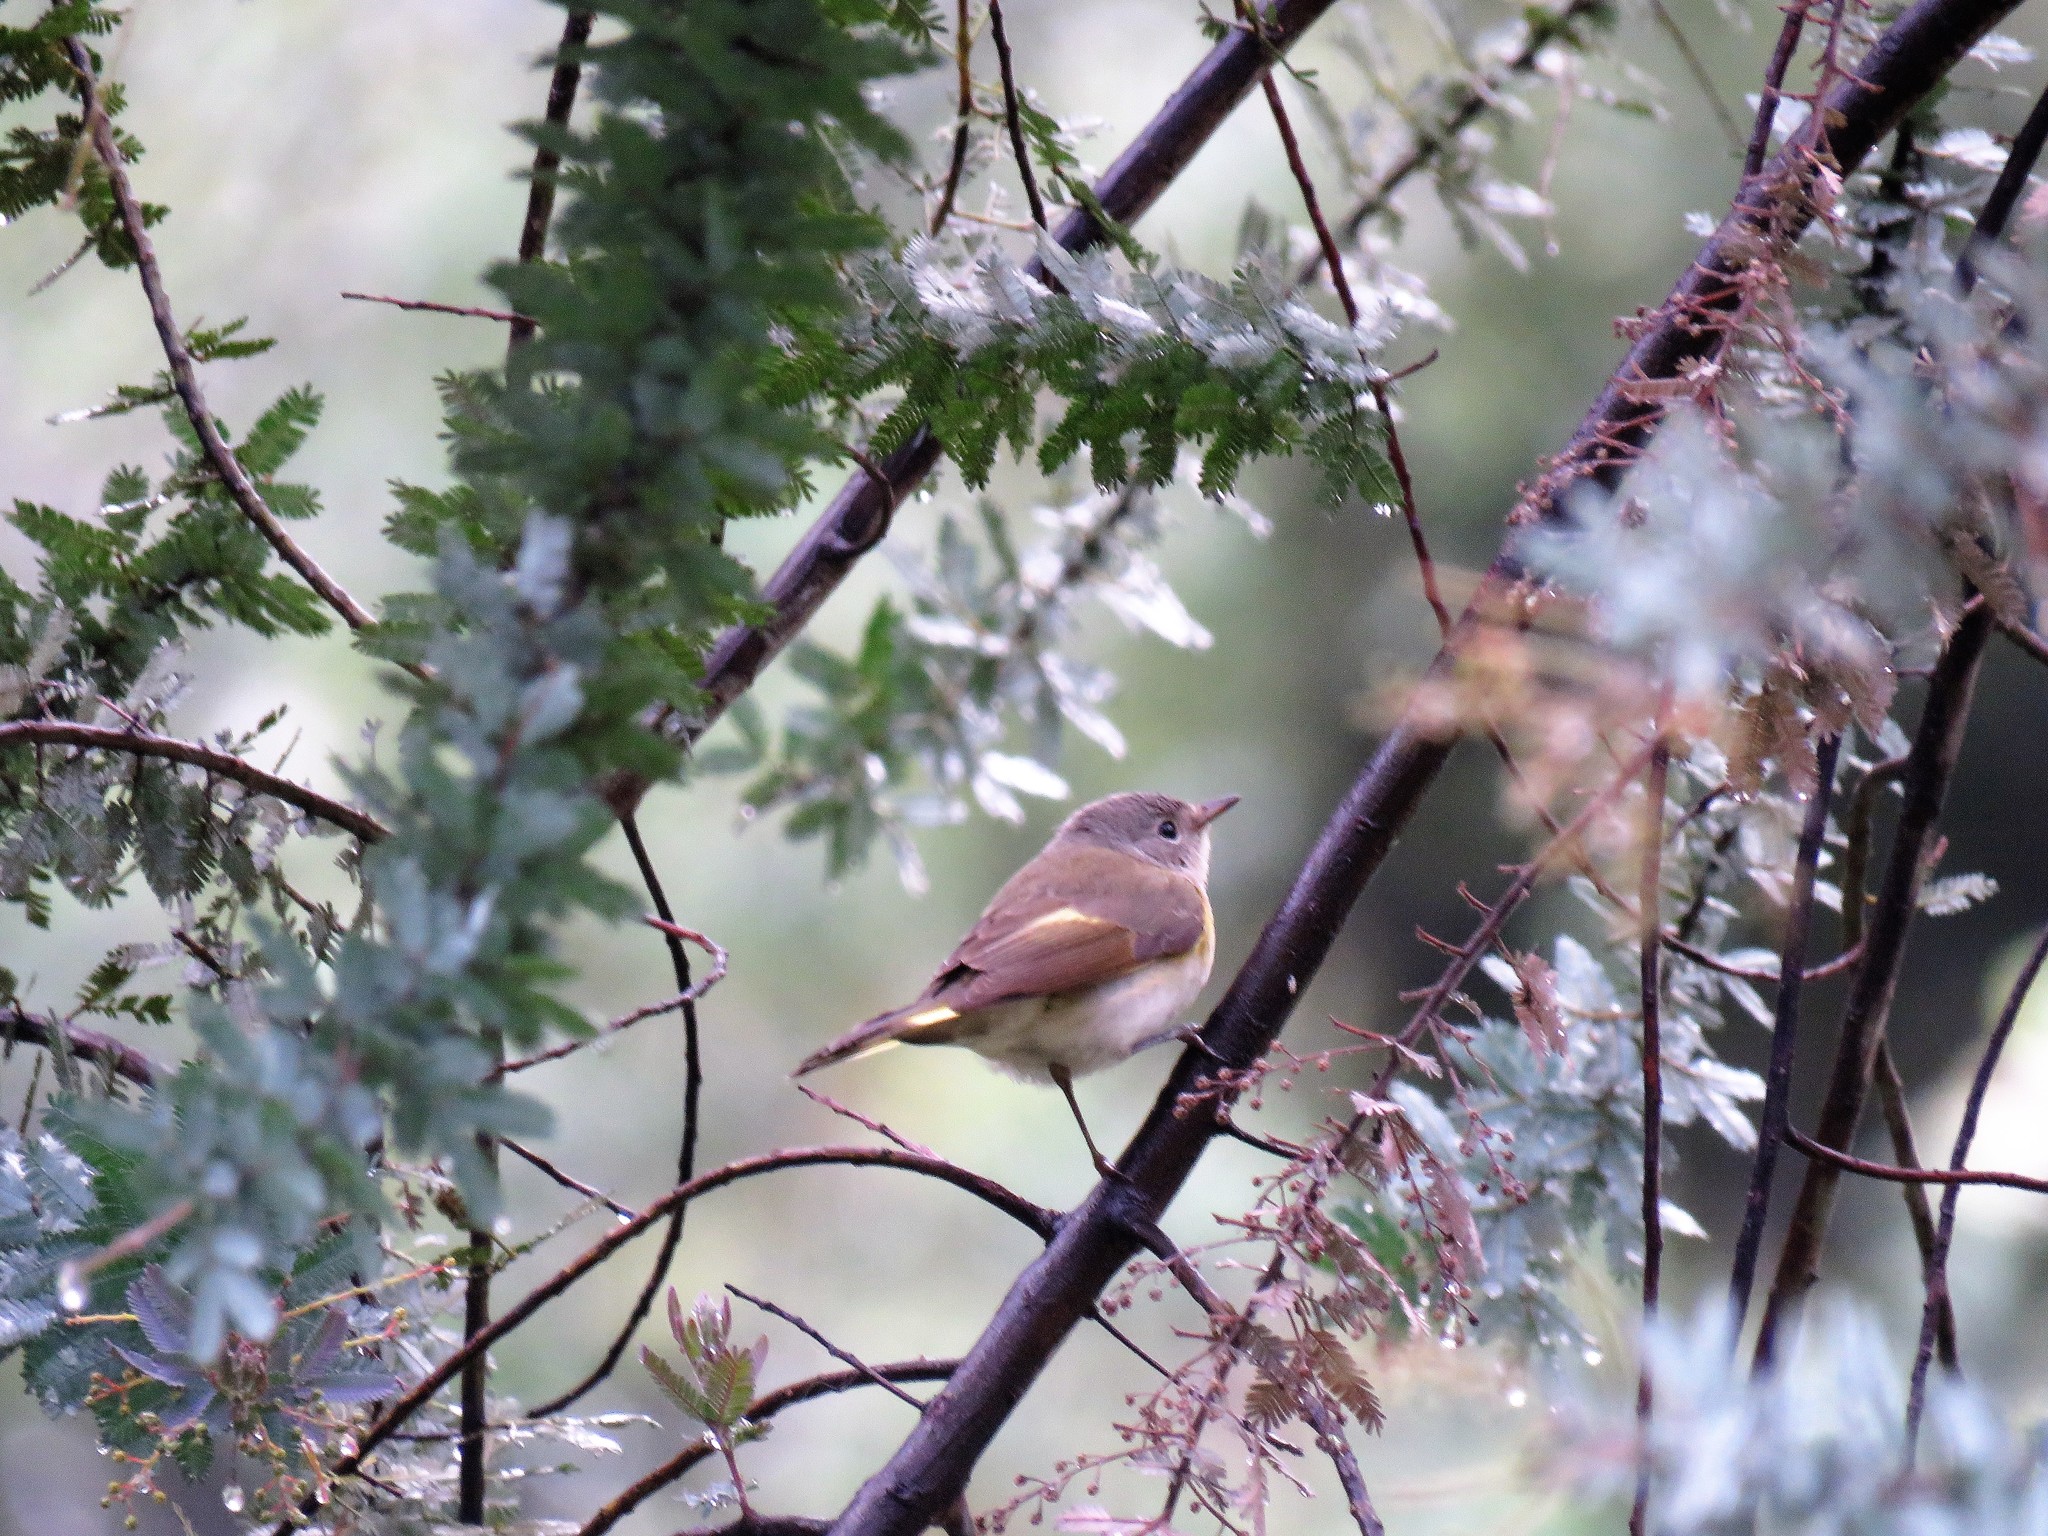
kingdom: Animalia
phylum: Chordata
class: Aves
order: Passeriformes
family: Parulidae
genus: Setophaga
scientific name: Setophaga ruticilla
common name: American redstart
